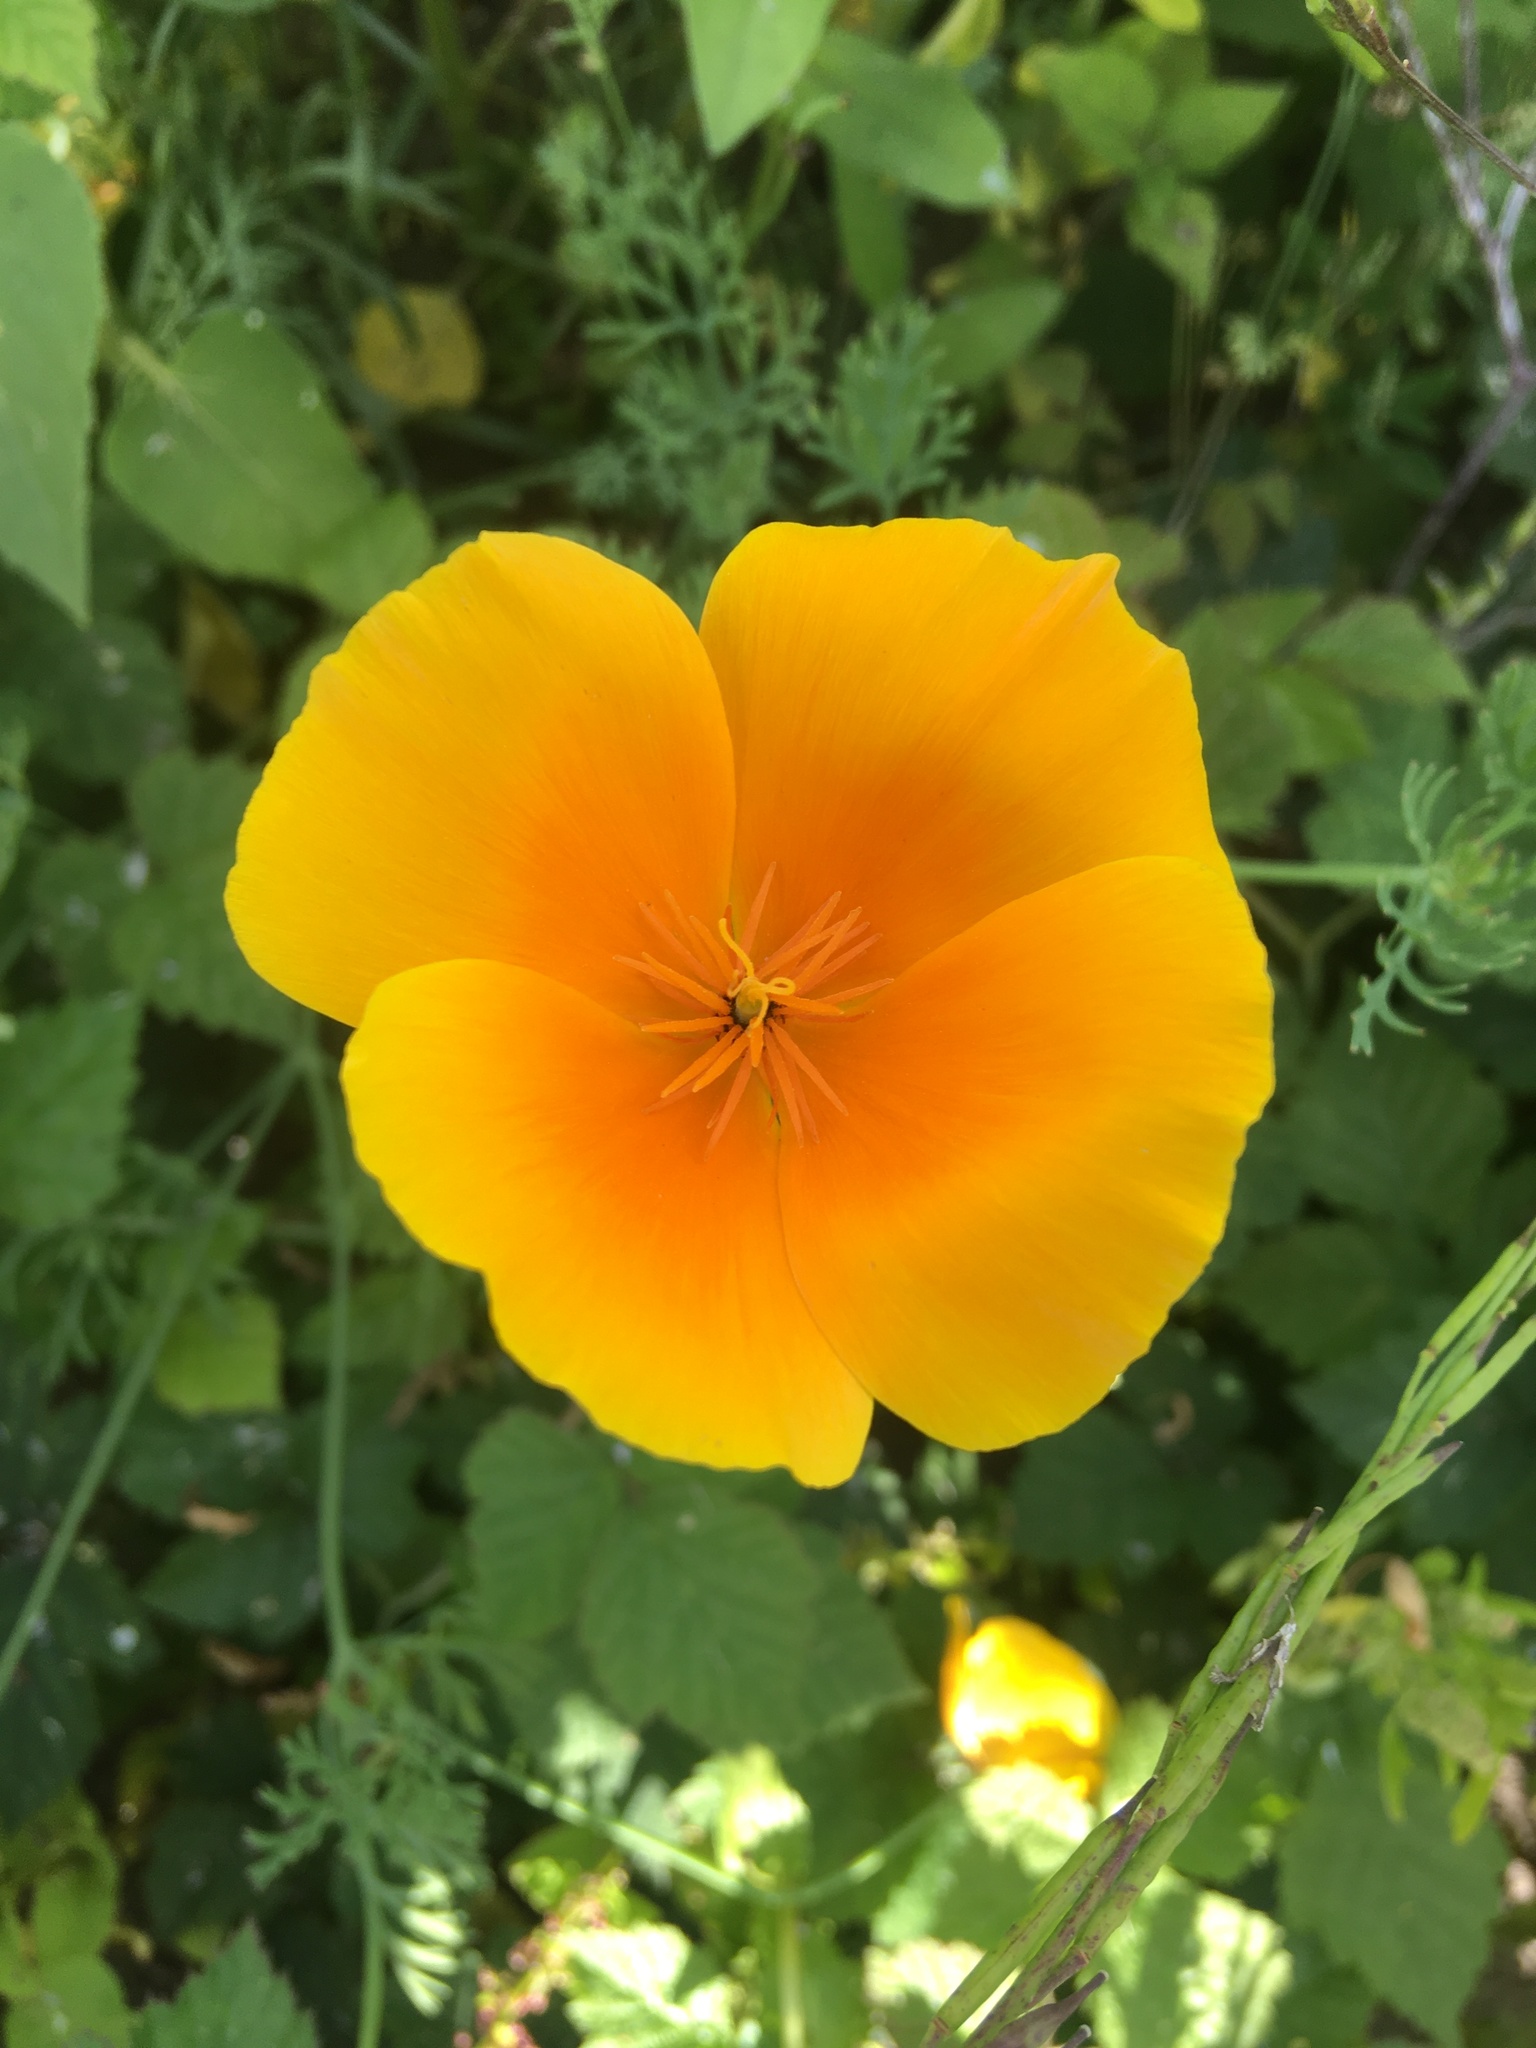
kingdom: Plantae
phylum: Tracheophyta
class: Magnoliopsida
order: Ranunculales
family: Papaveraceae
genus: Eschscholzia
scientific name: Eschscholzia californica
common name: California poppy
